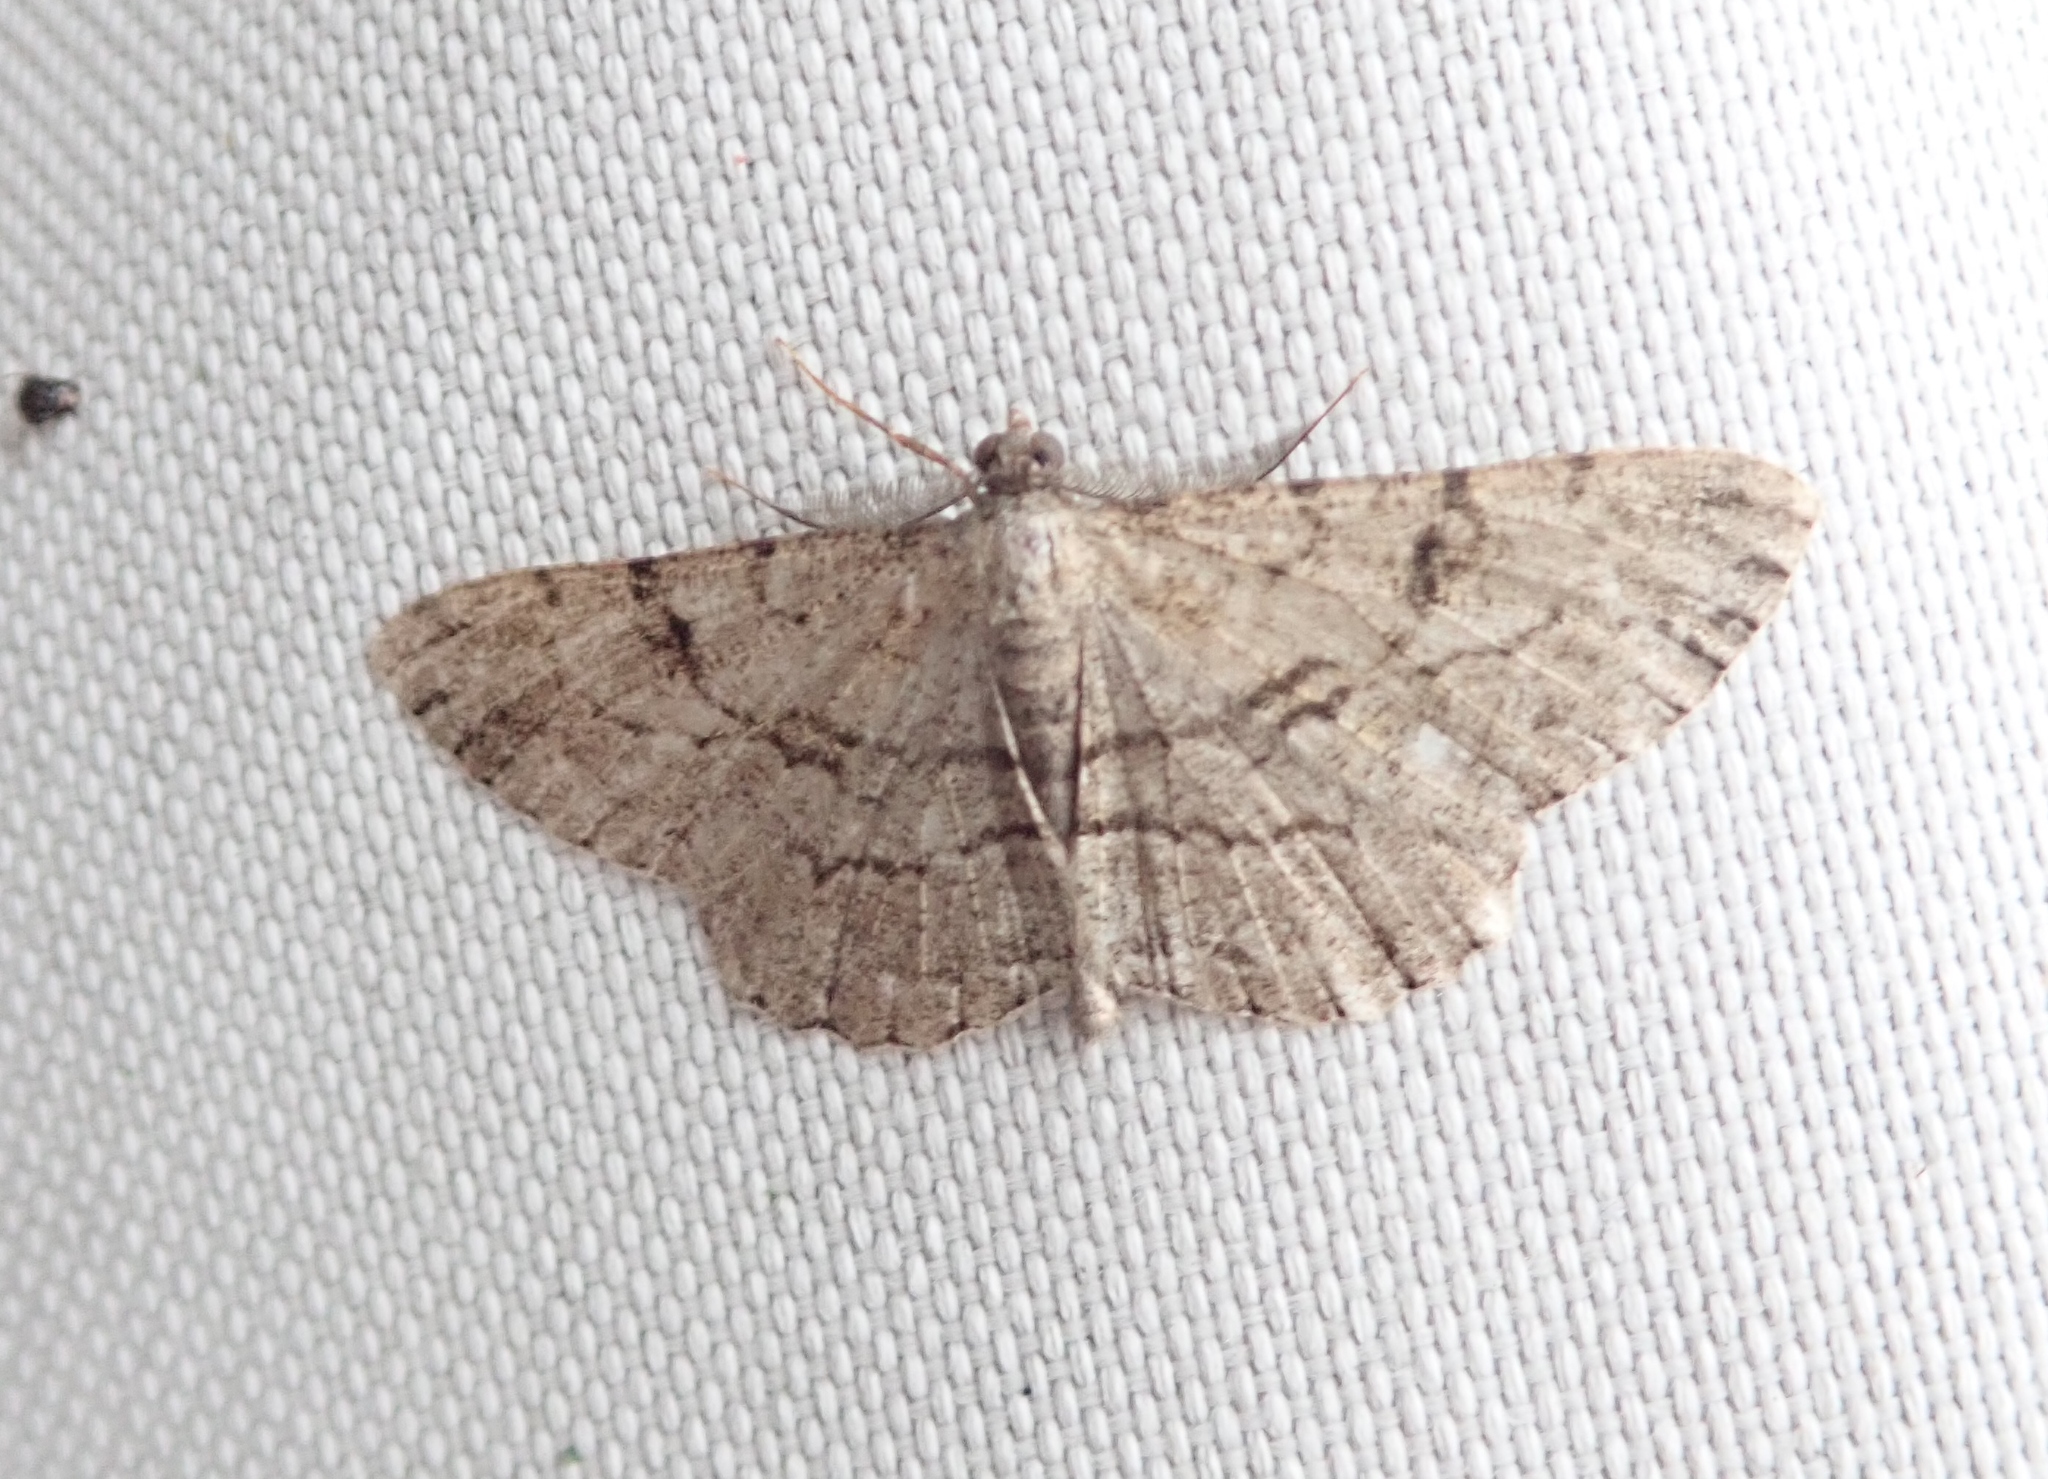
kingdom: Animalia
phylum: Arthropoda
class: Insecta
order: Lepidoptera
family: Geometridae
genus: Peribatodes
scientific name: Peribatodes rhomboidaria
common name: Willow beauty
